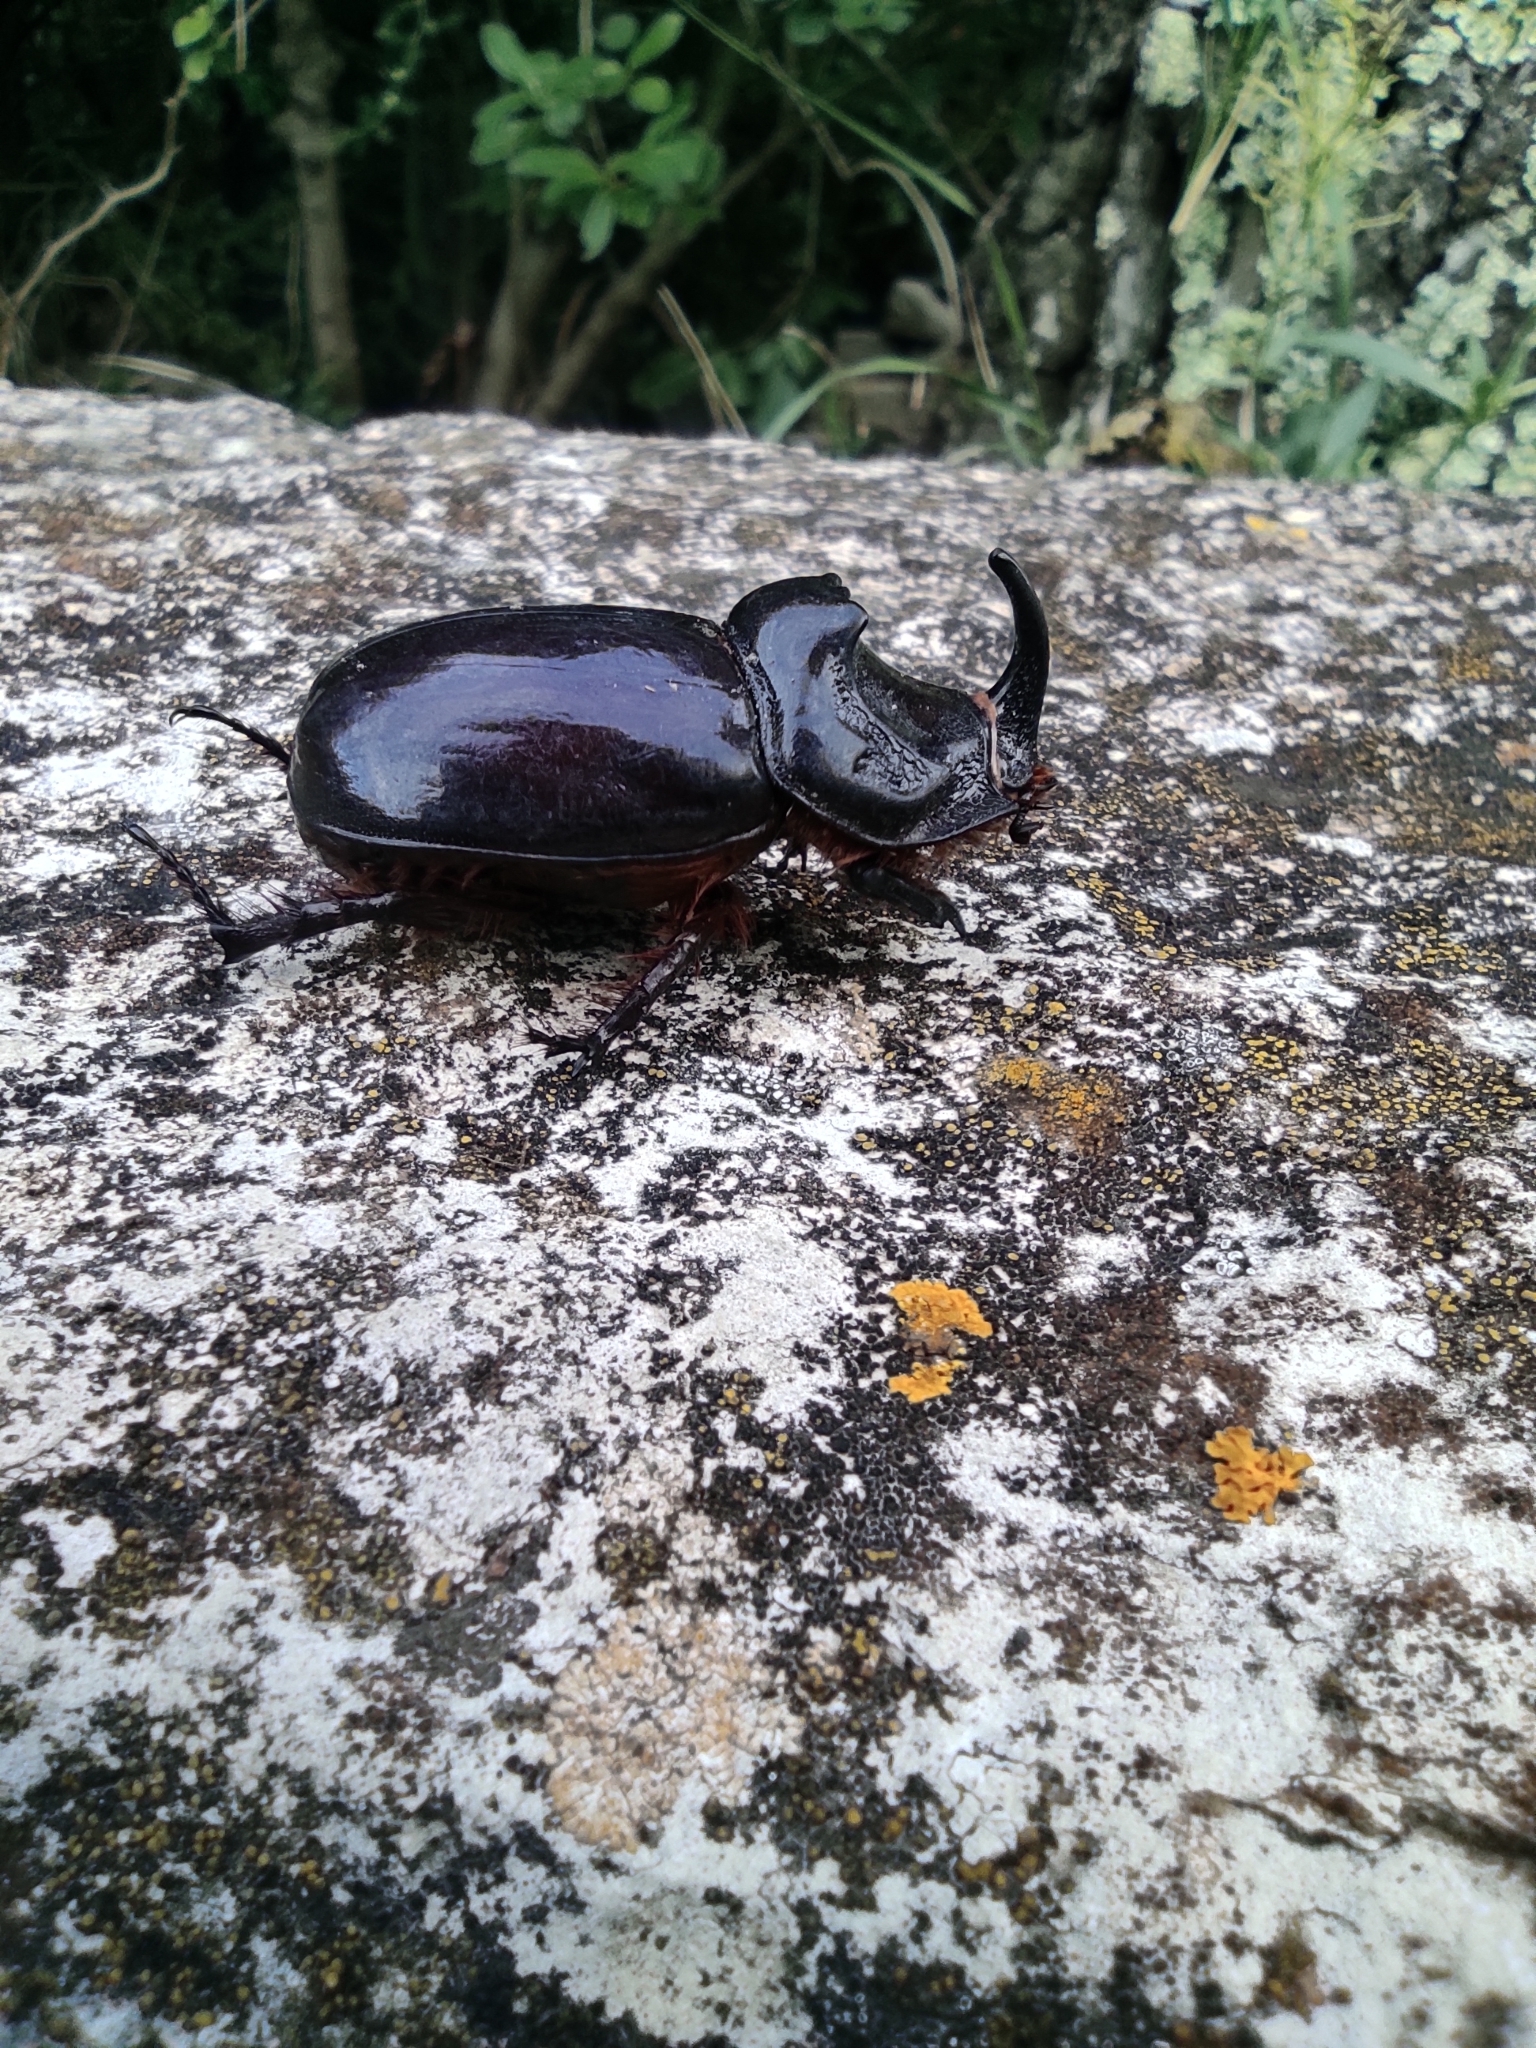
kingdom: Animalia
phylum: Arthropoda
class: Insecta
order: Coleoptera
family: Scarabaeidae
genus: Oryctes
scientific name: Oryctes nasicornis
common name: European rhinoceros beetle
